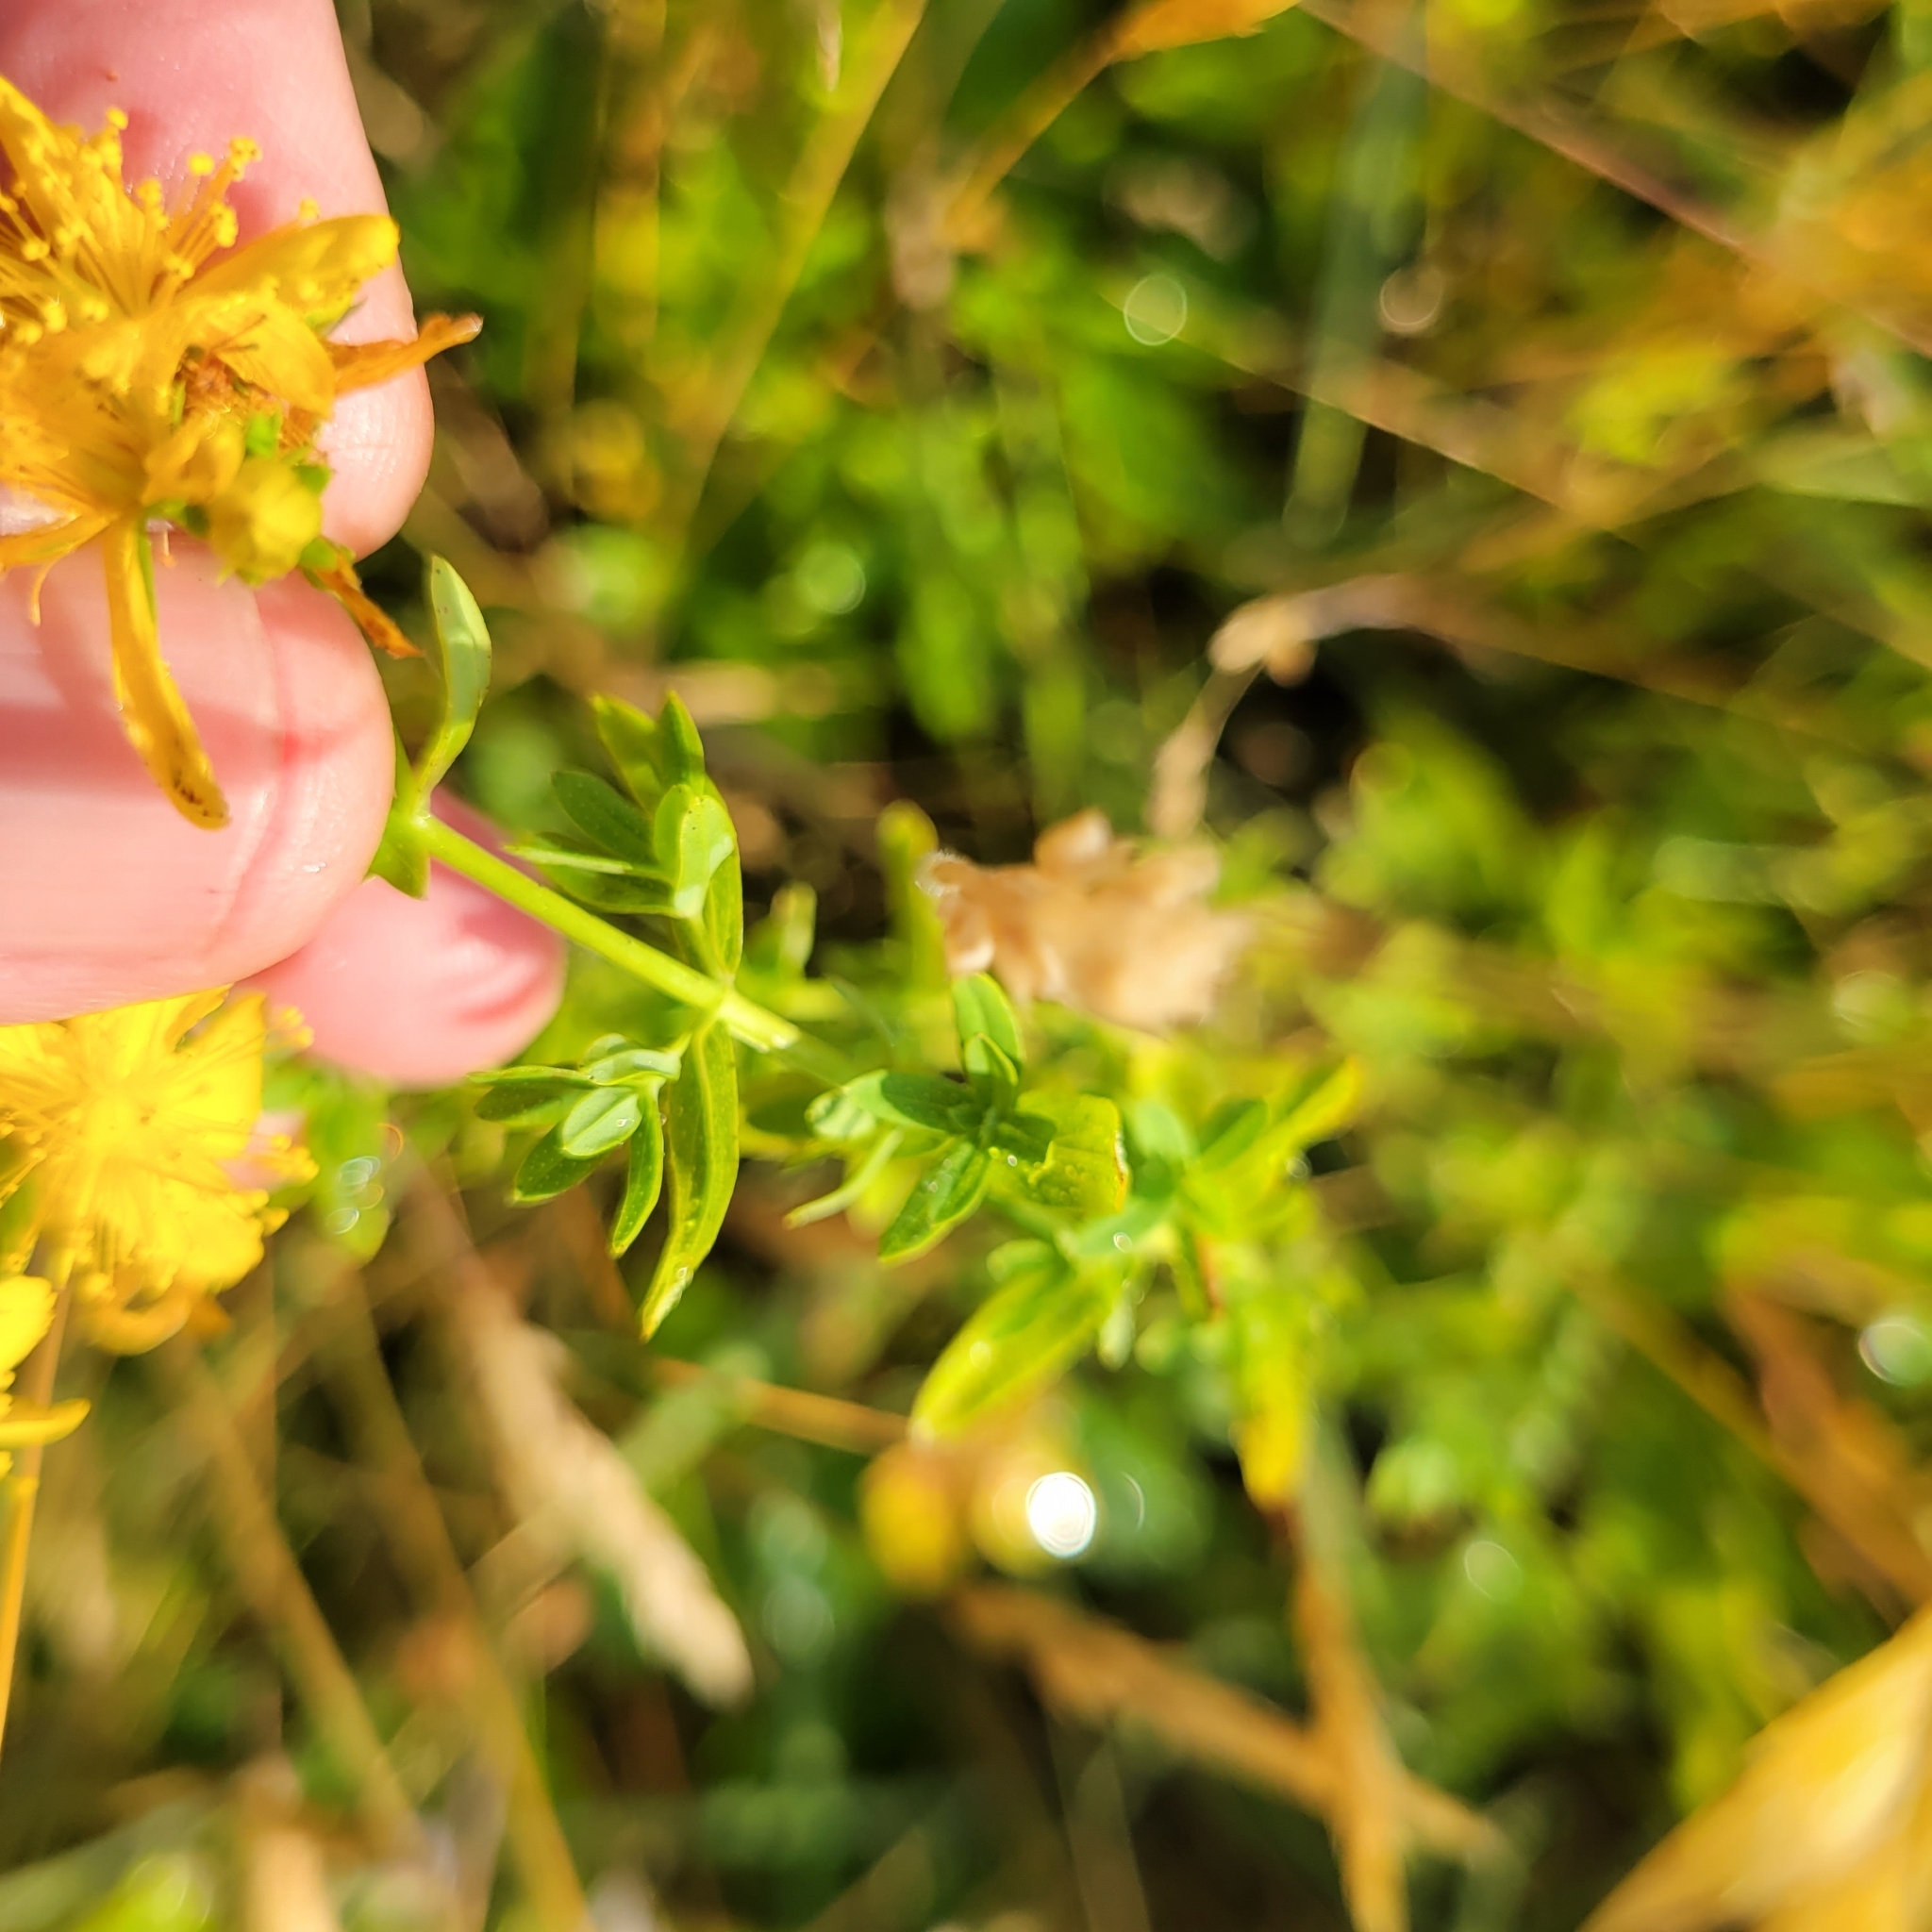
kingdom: Plantae
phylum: Tracheophyta
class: Magnoliopsida
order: Malpighiales
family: Hypericaceae
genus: Hypericum
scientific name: Hypericum perforatum
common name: Common st. johnswort
